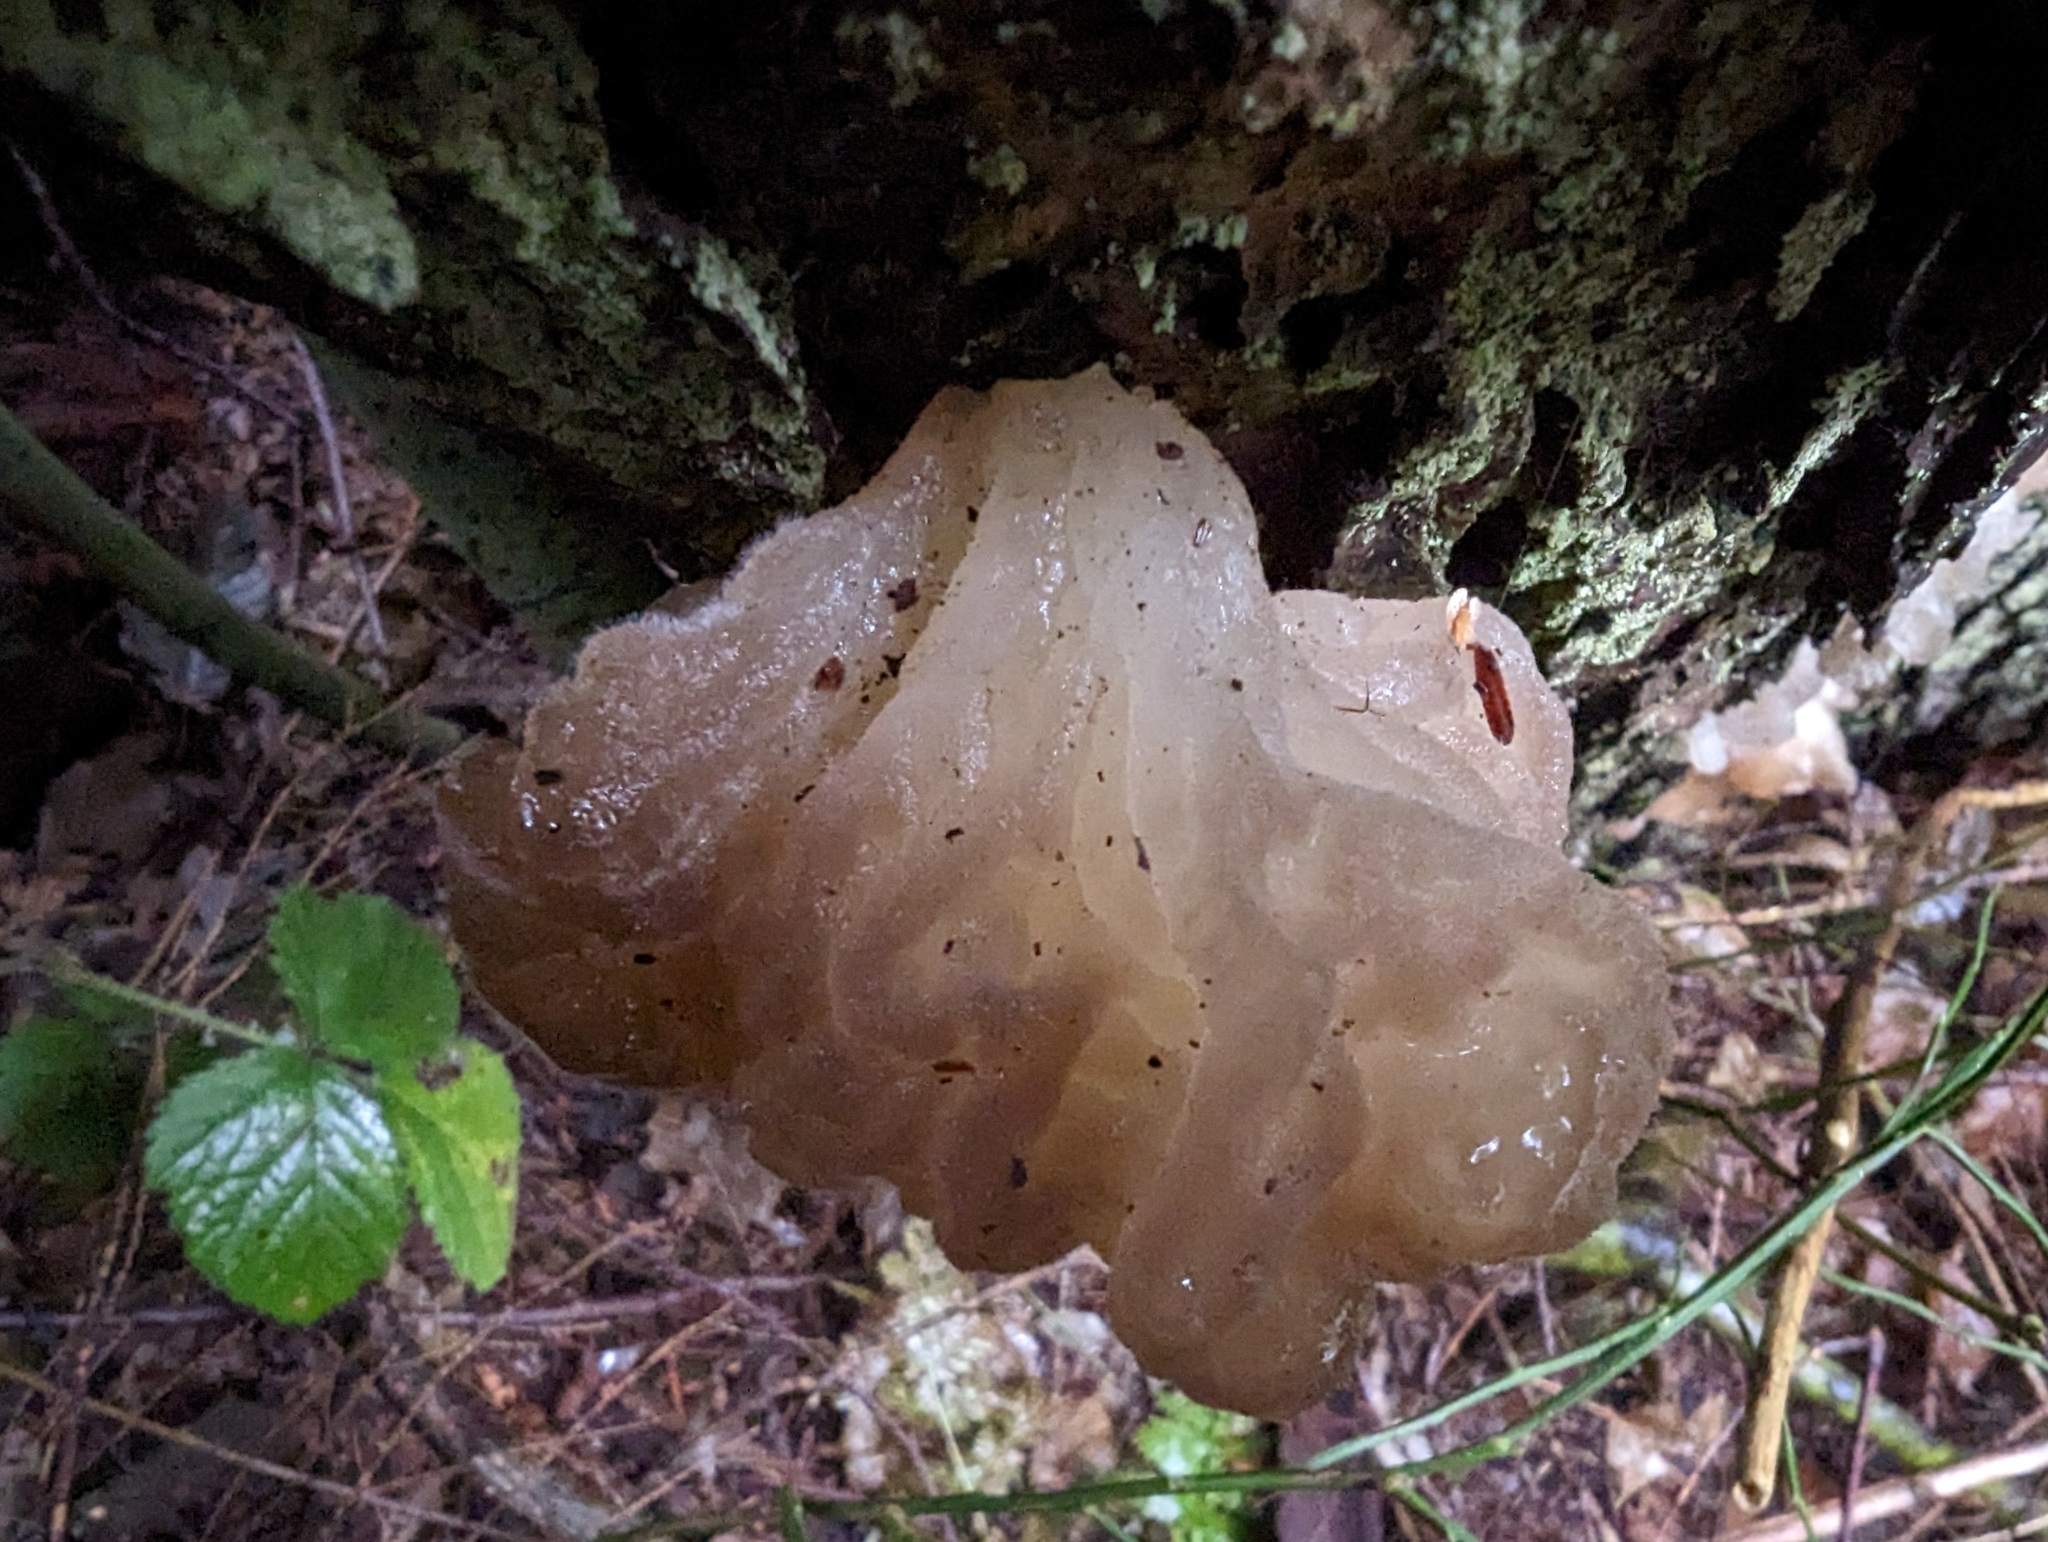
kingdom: Fungi
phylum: Basidiomycota
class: Tremellomycetes
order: Tremellales
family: Naemateliaceae
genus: Naematelia
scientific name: Naematelia encephala
